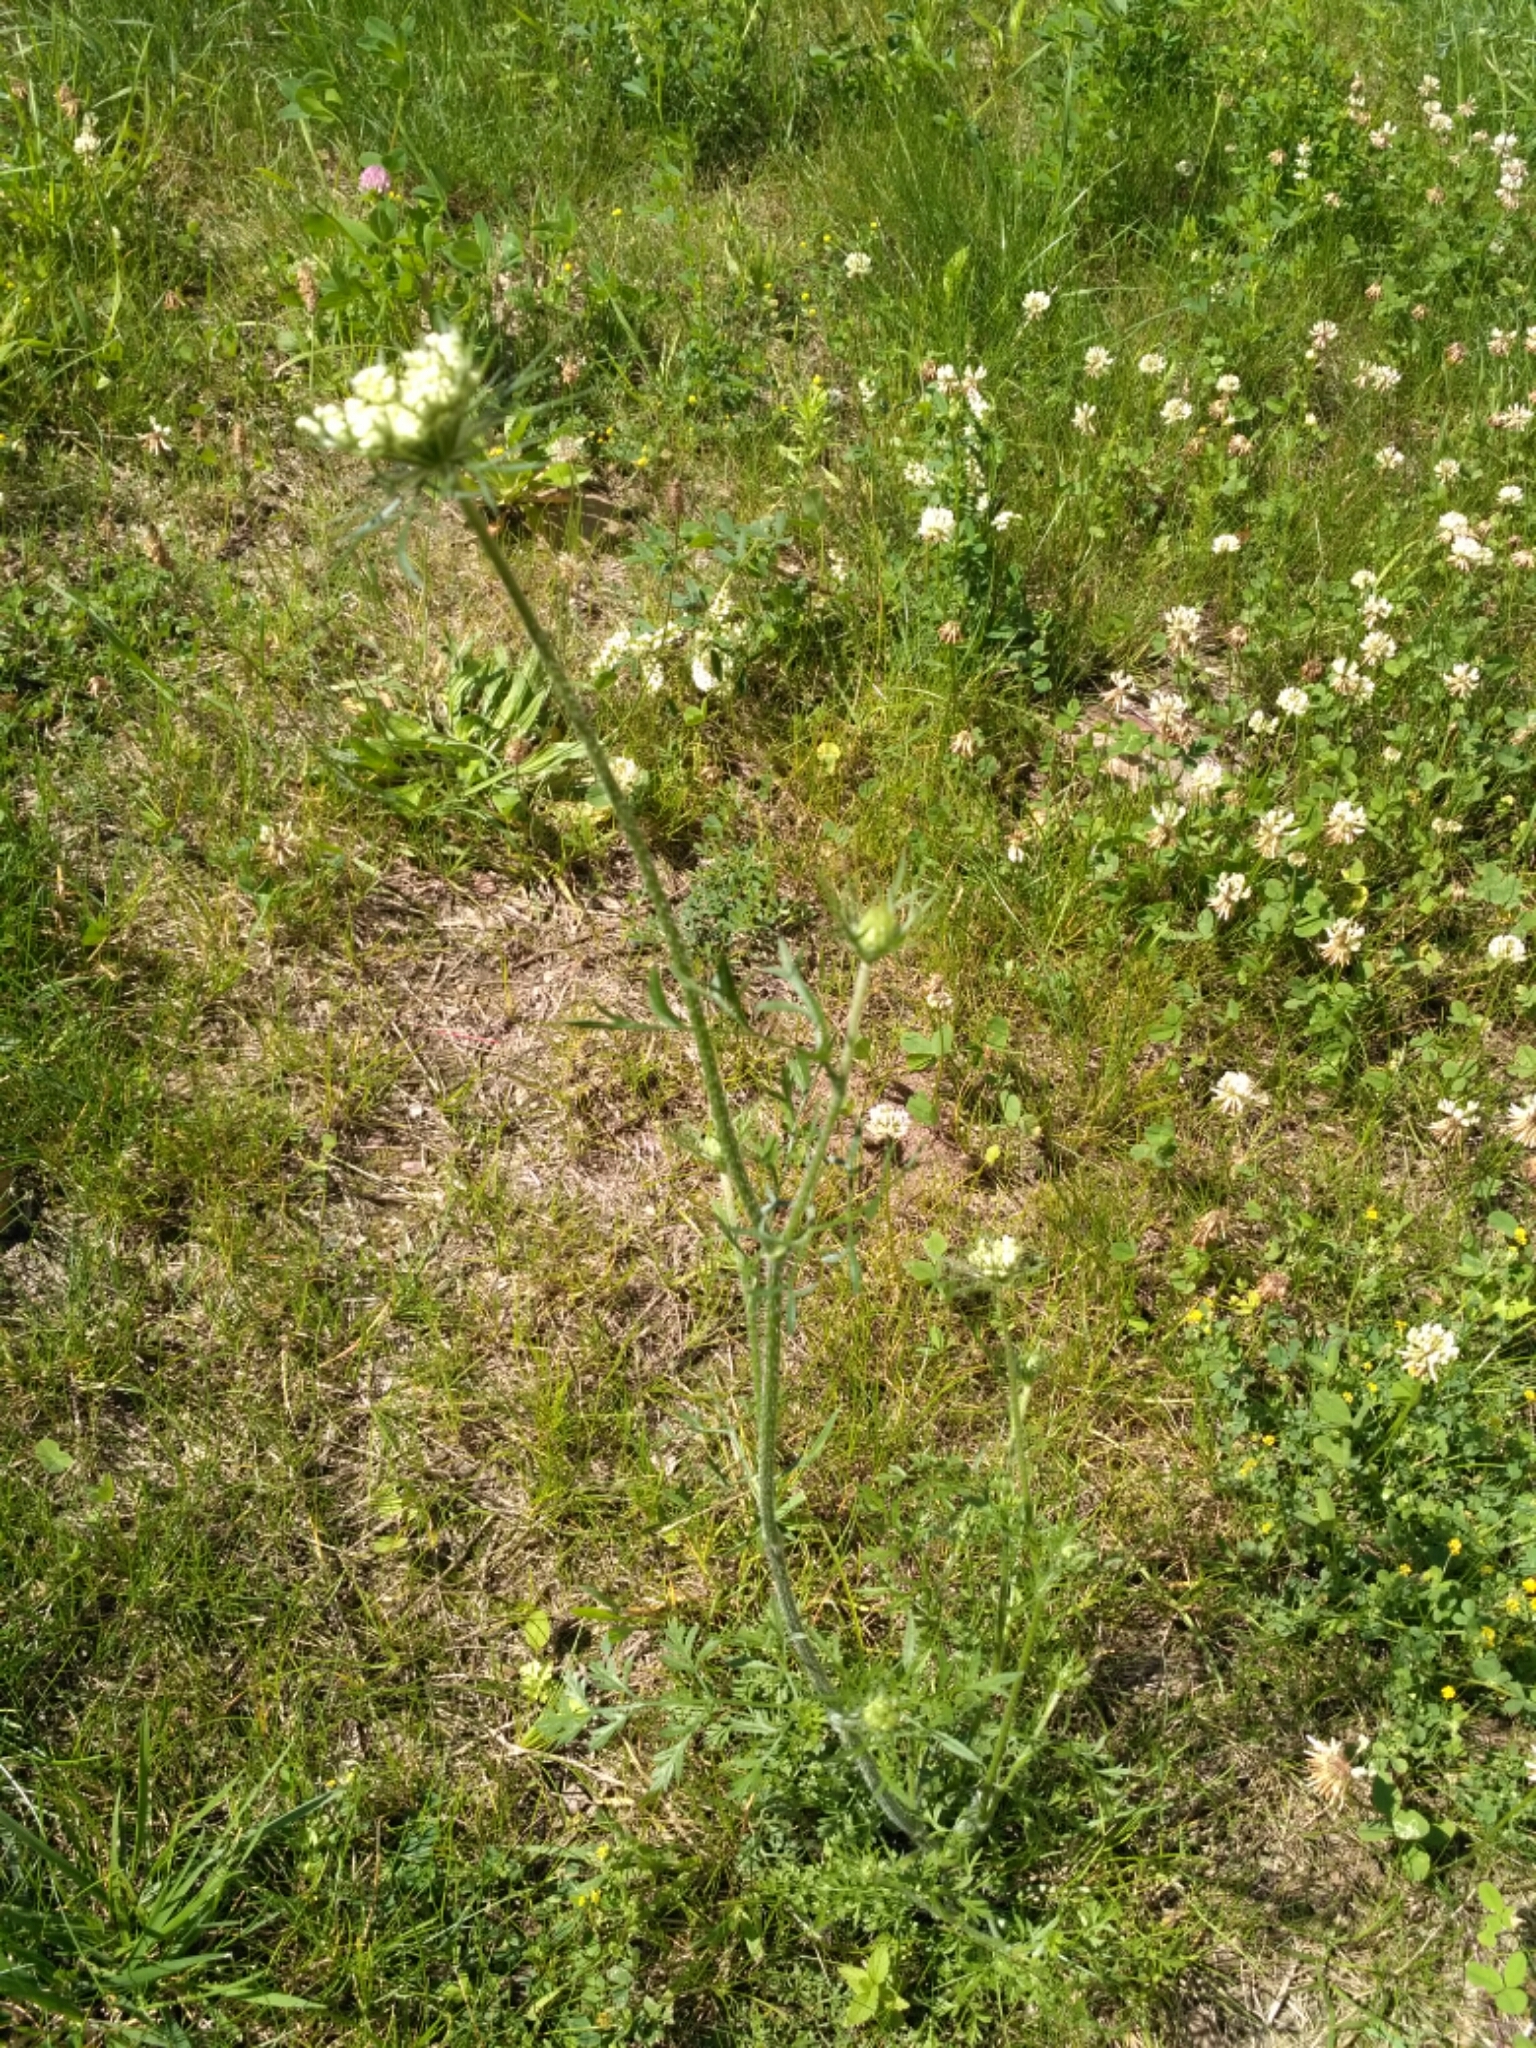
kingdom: Plantae
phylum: Tracheophyta
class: Magnoliopsida
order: Apiales
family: Apiaceae
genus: Daucus
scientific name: Daucus carota
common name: Wild carrot
